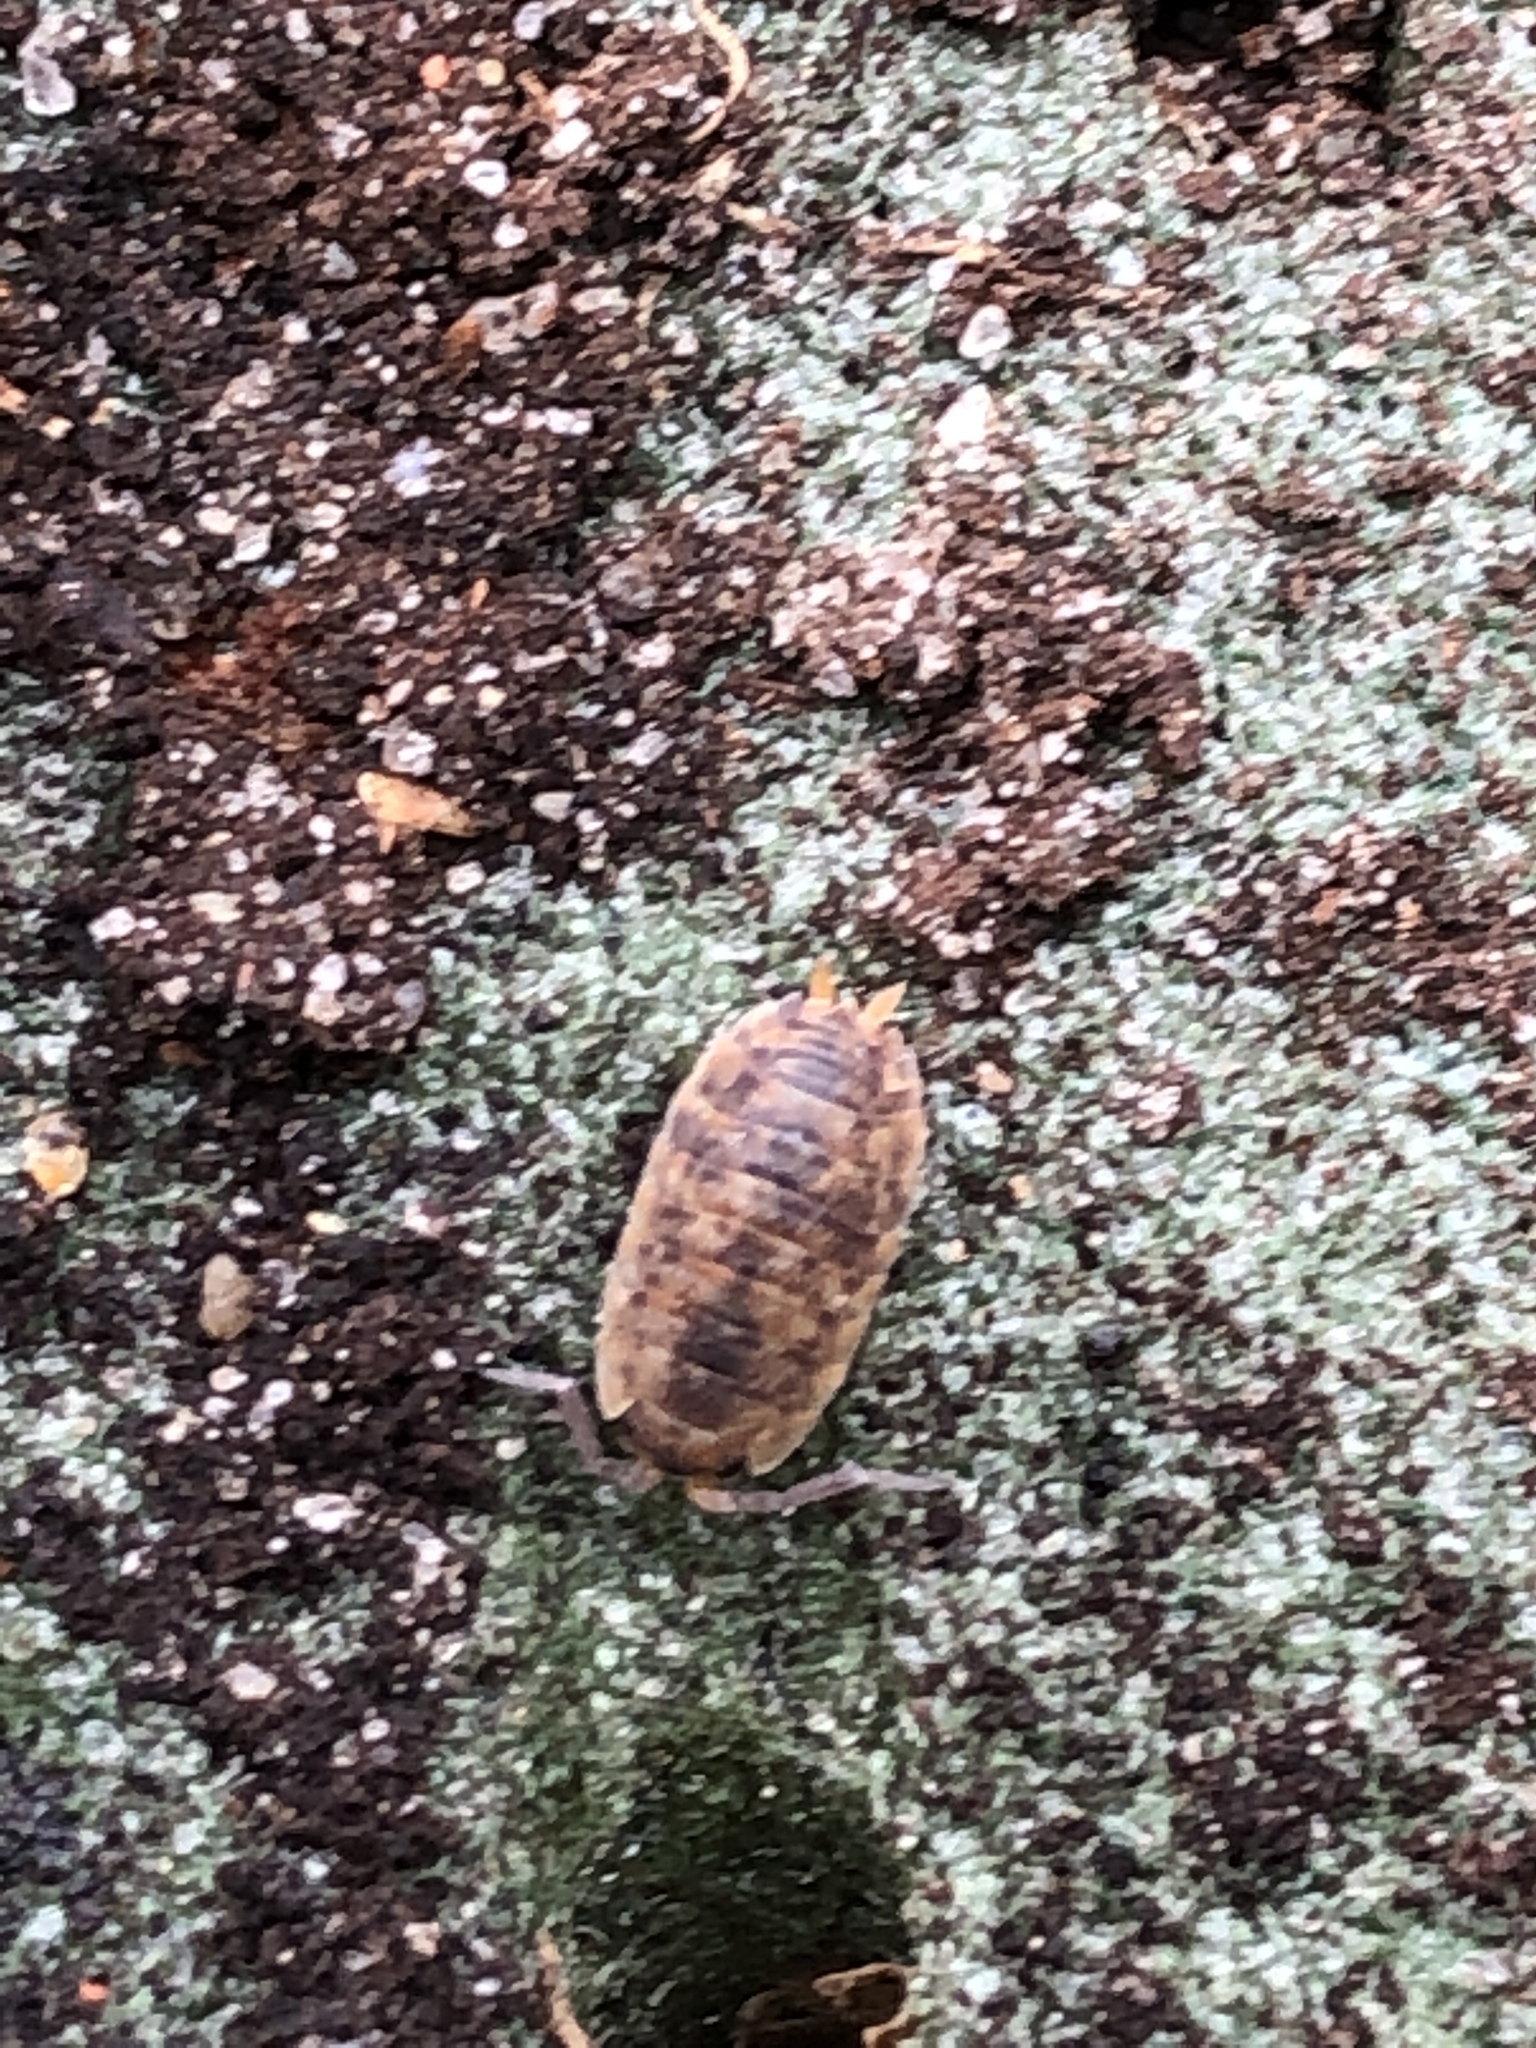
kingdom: Animalia
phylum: Arthropoda
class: Malacostraca
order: Isopoda
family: Porcellionidae
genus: Porcellio
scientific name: Porcellio scaber
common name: Common rough woodlouse
